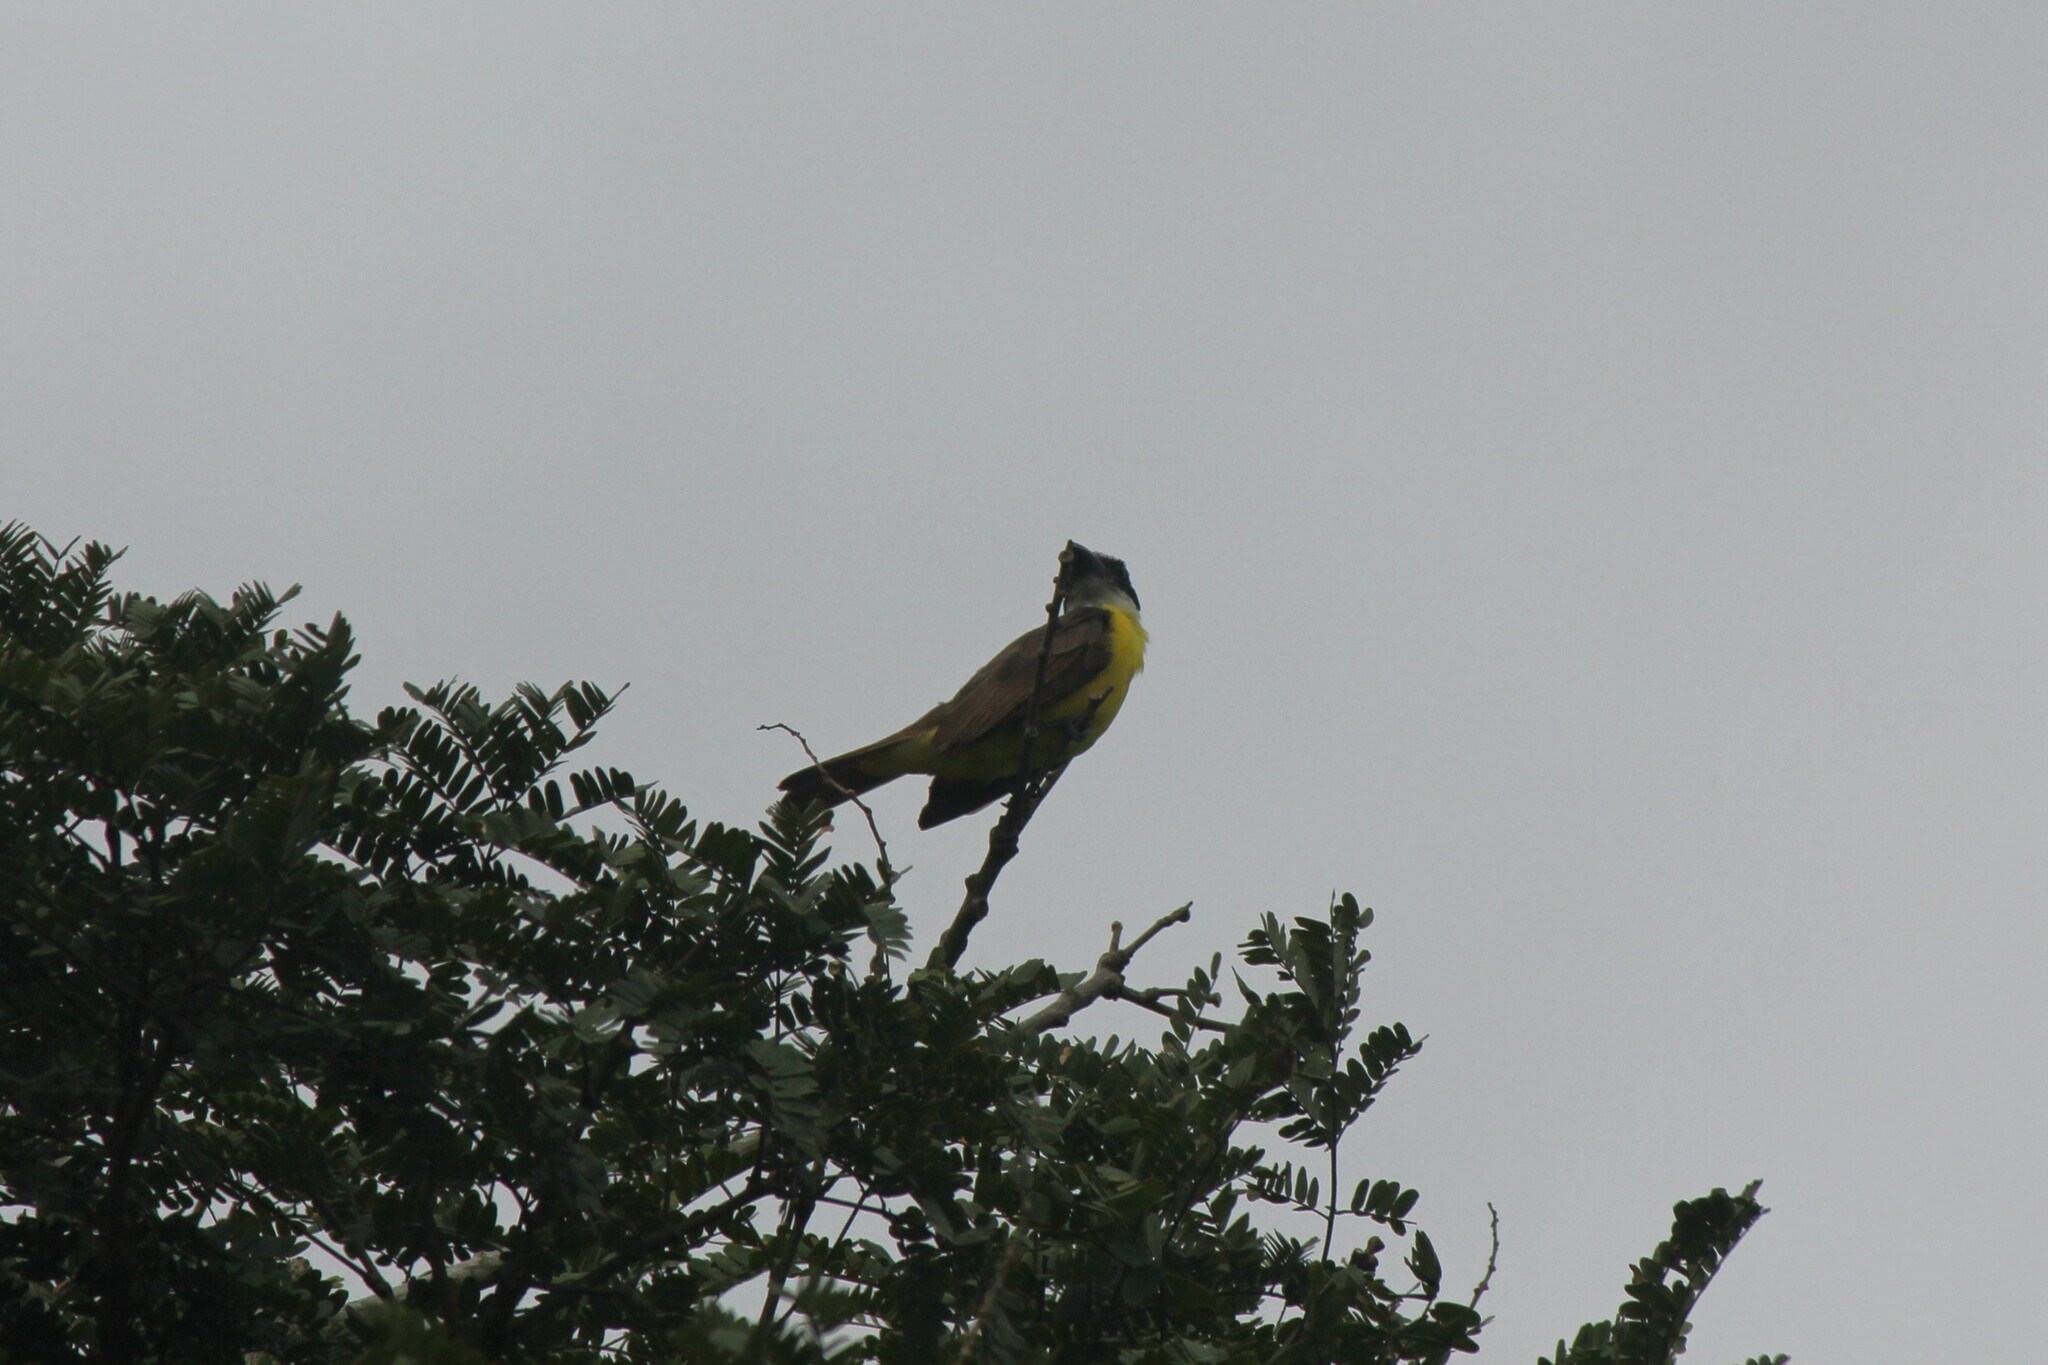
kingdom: Animalia
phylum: Chordata
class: Aves
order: Passeriformes
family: Tyrannidae
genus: Megarynchus
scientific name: Megarynchus pitangua
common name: Boat-billed flycatcher
